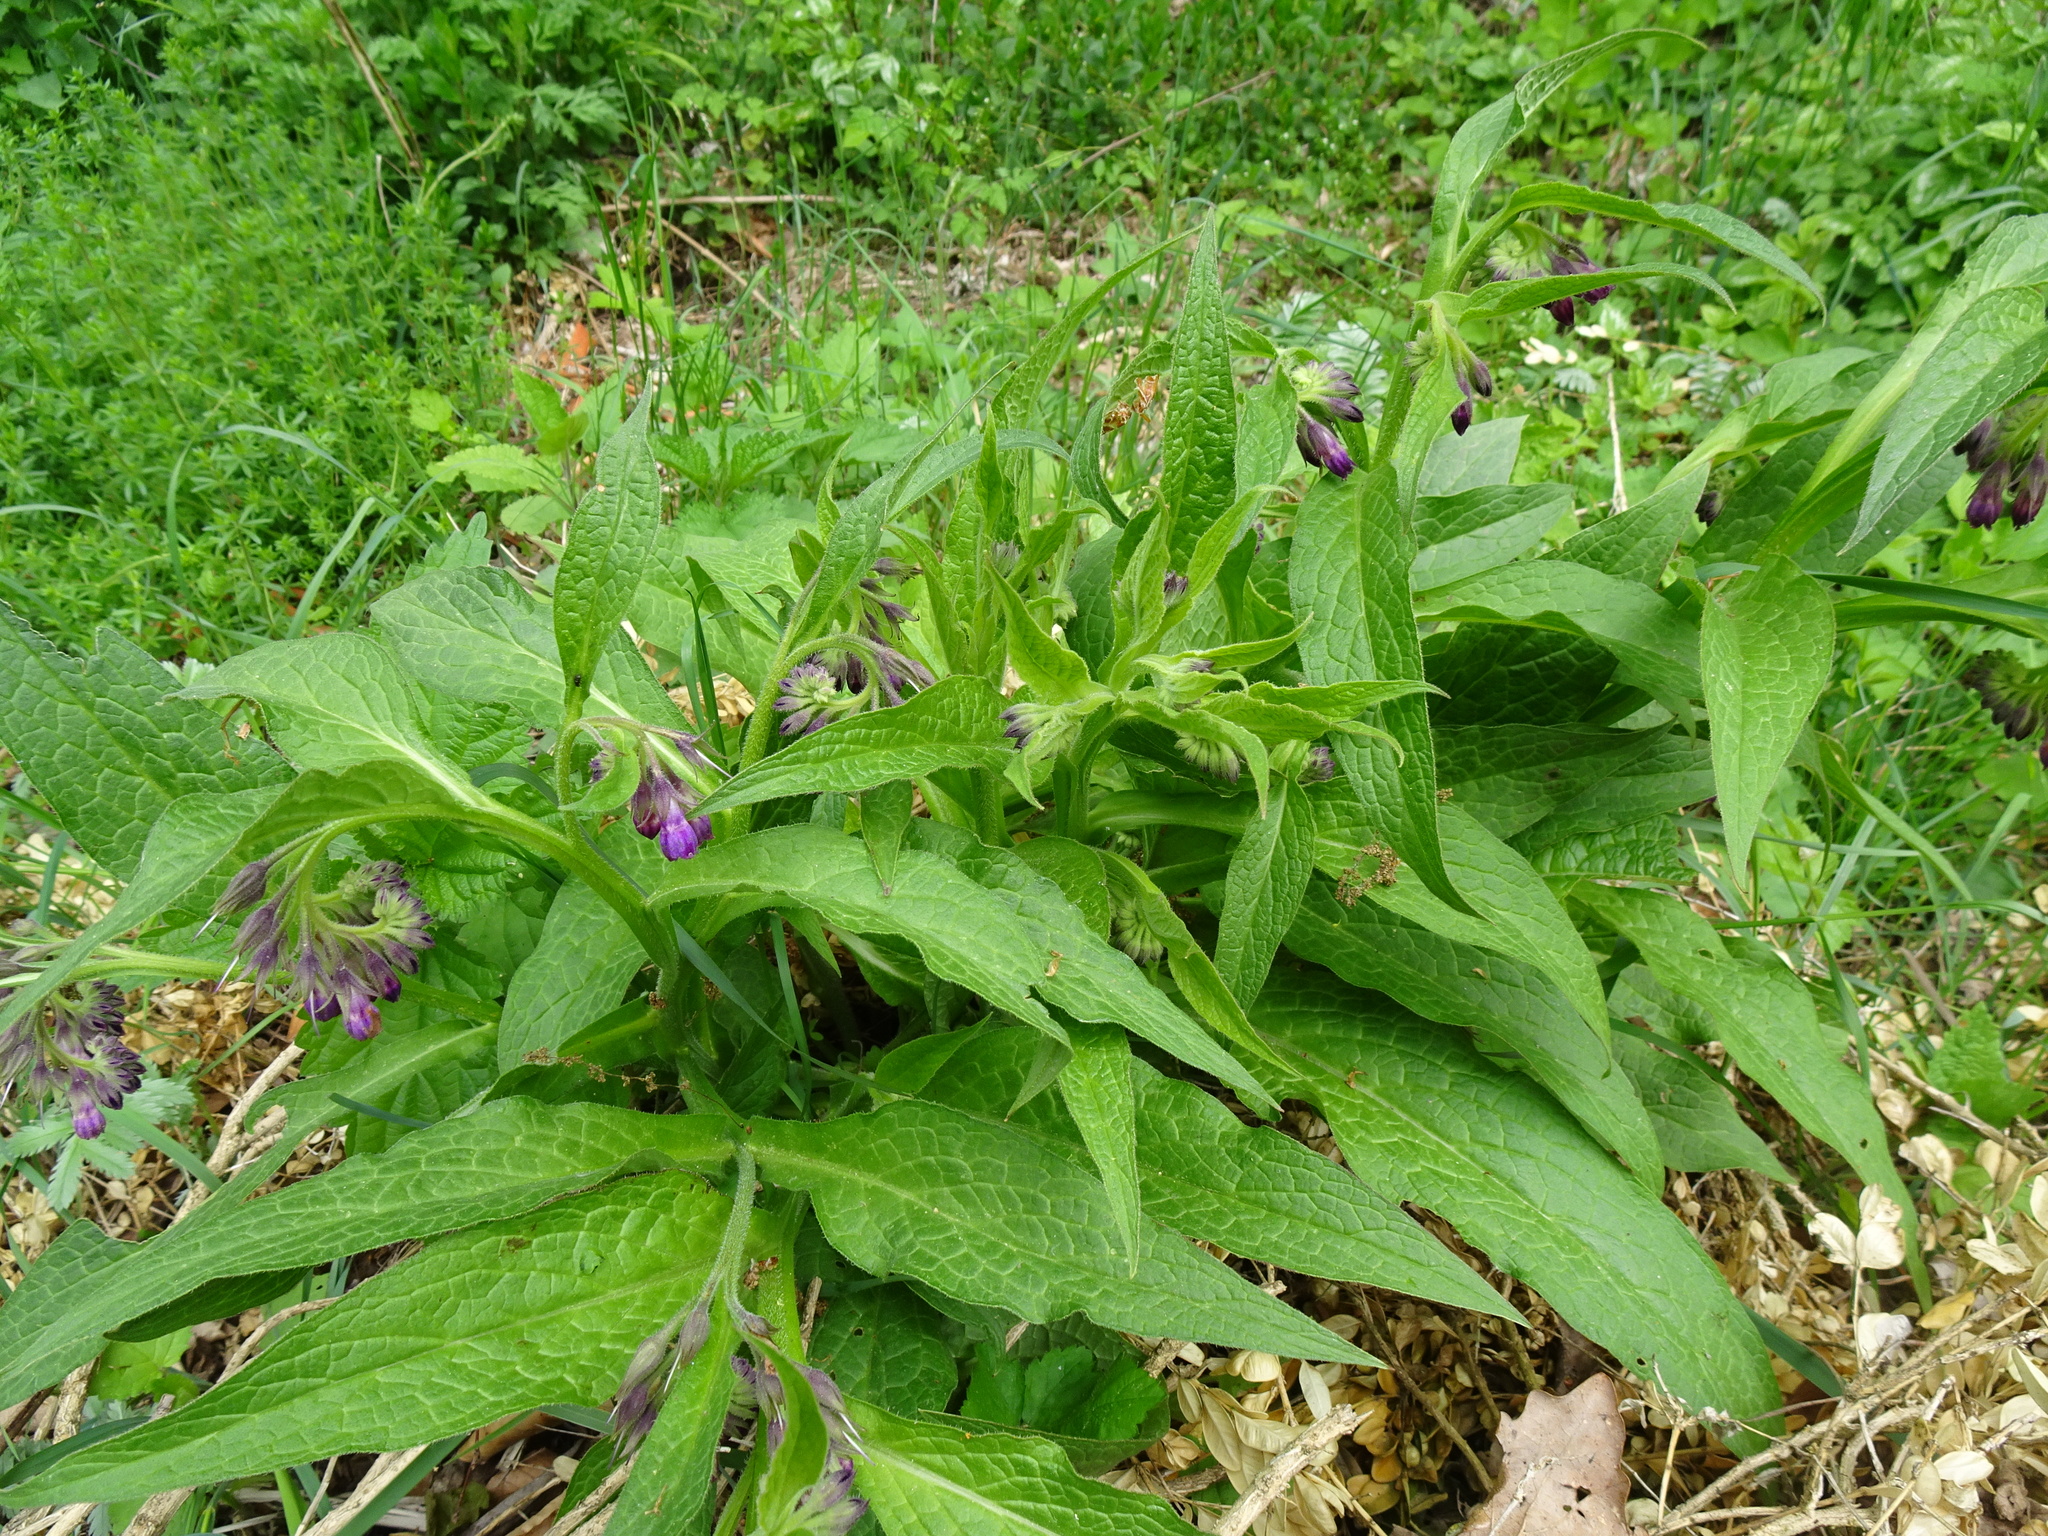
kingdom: Plantae
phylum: Tracheophyta
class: Magnoliopsida
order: Boraginales
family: Boraginaceae
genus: Symphytum
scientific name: Symphytum officinale
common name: Common comfrey
